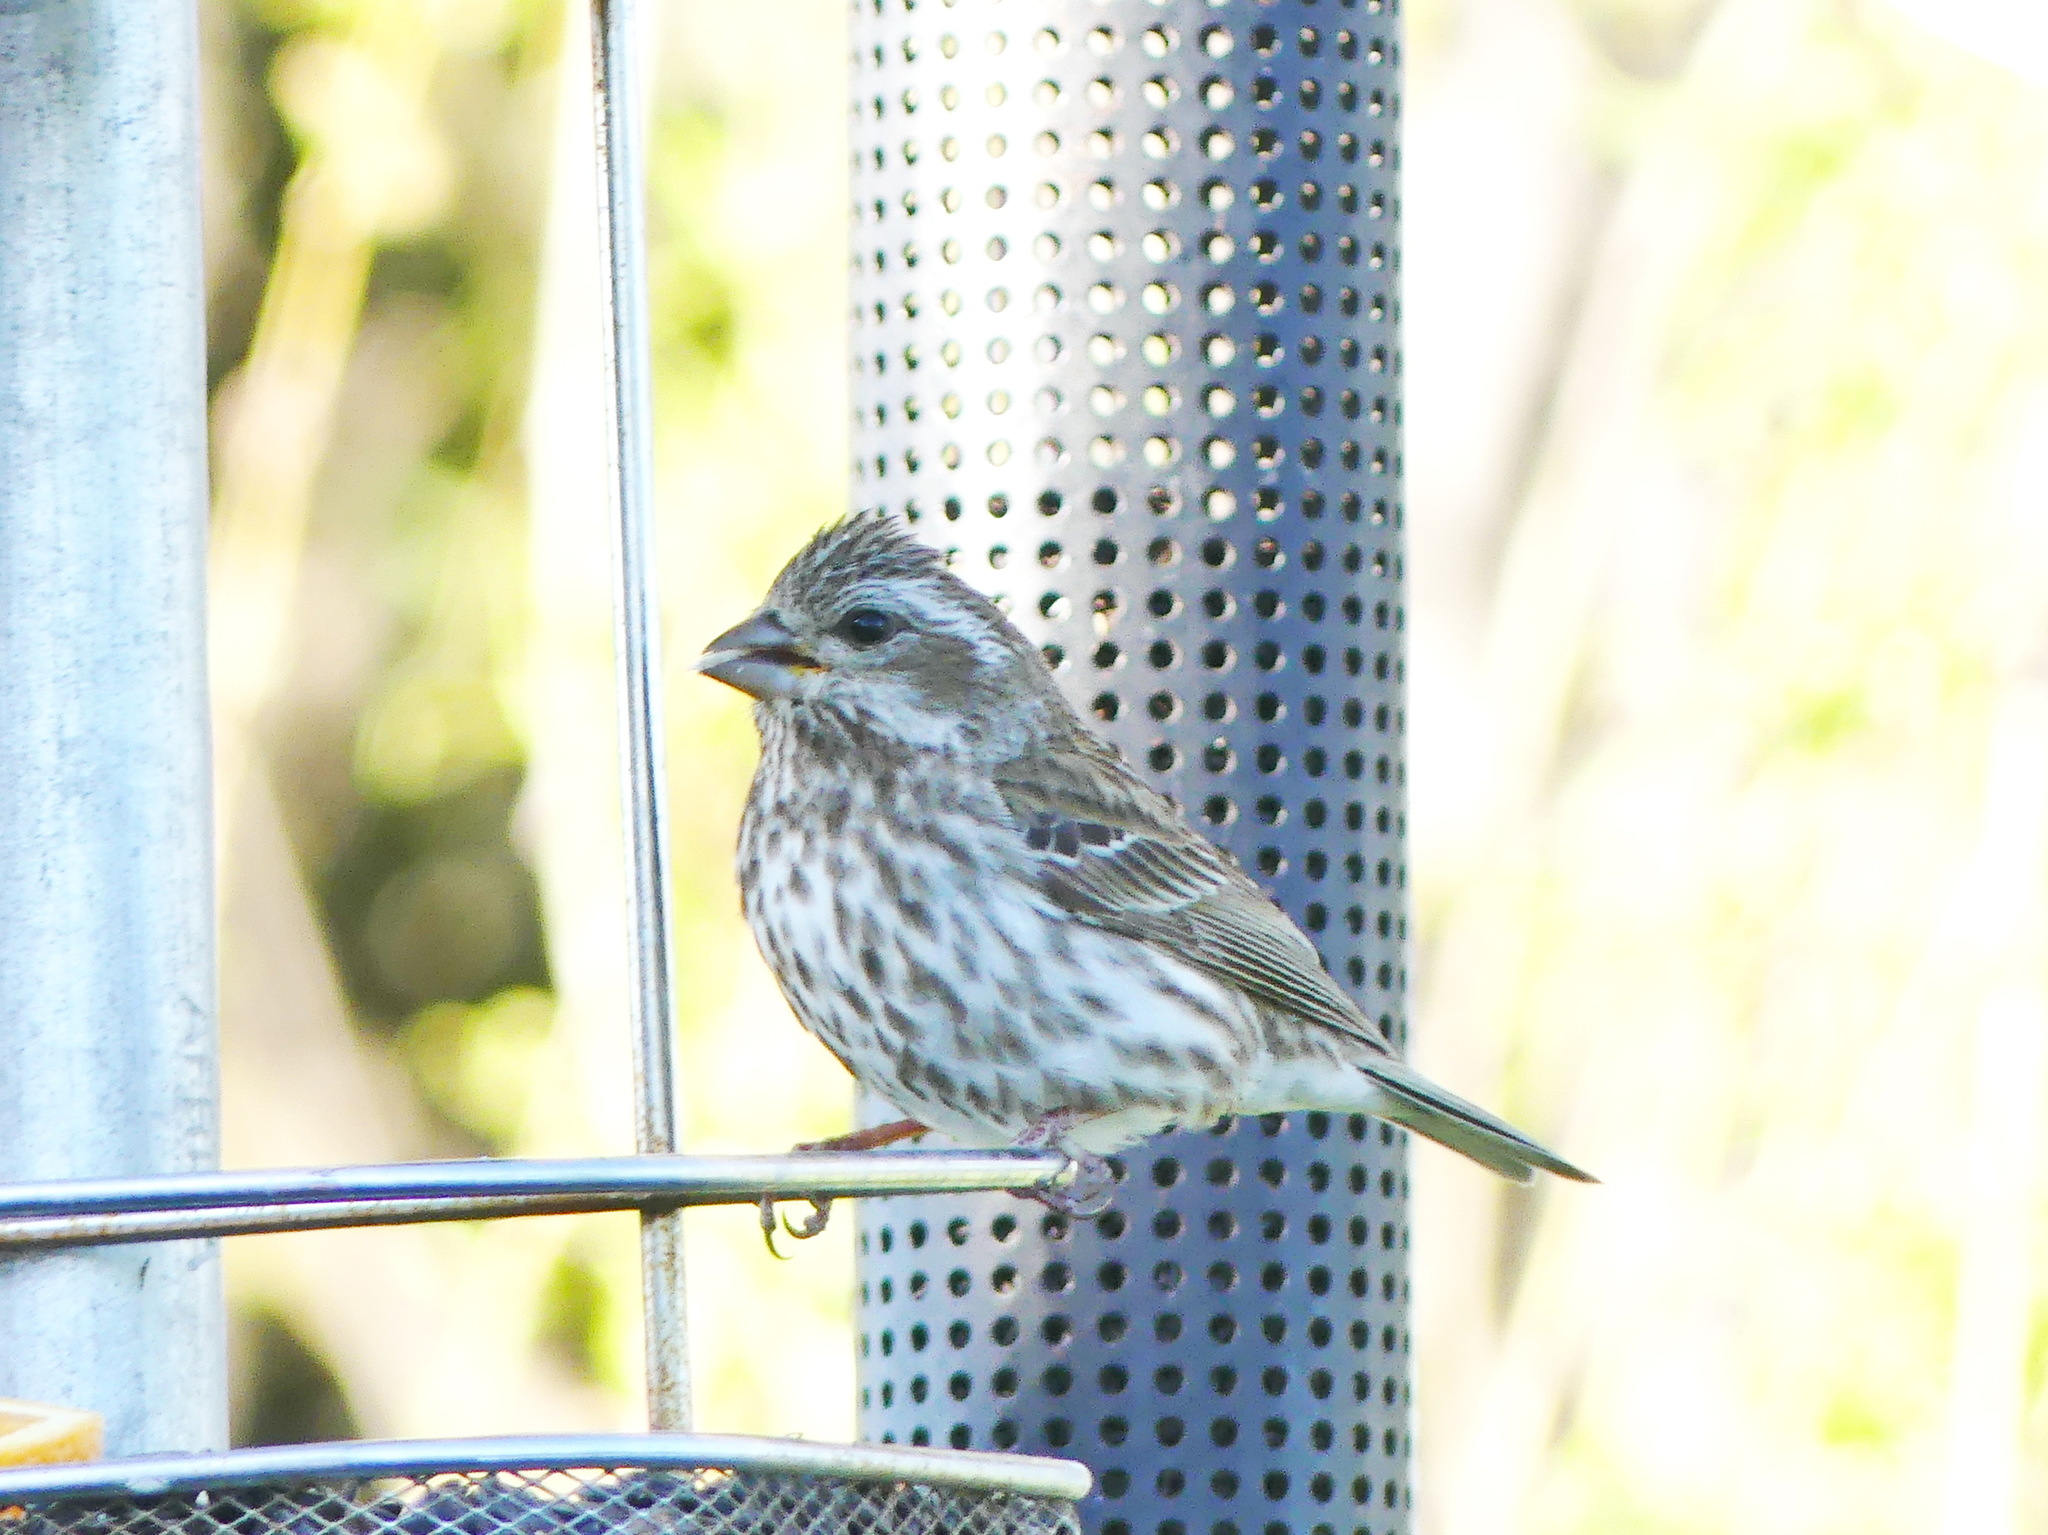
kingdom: Animalia
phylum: Chordata
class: Aves
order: Passeriformes
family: Fringillidae
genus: Haemorhous
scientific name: Haemorhous purpureus
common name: Purple finch
